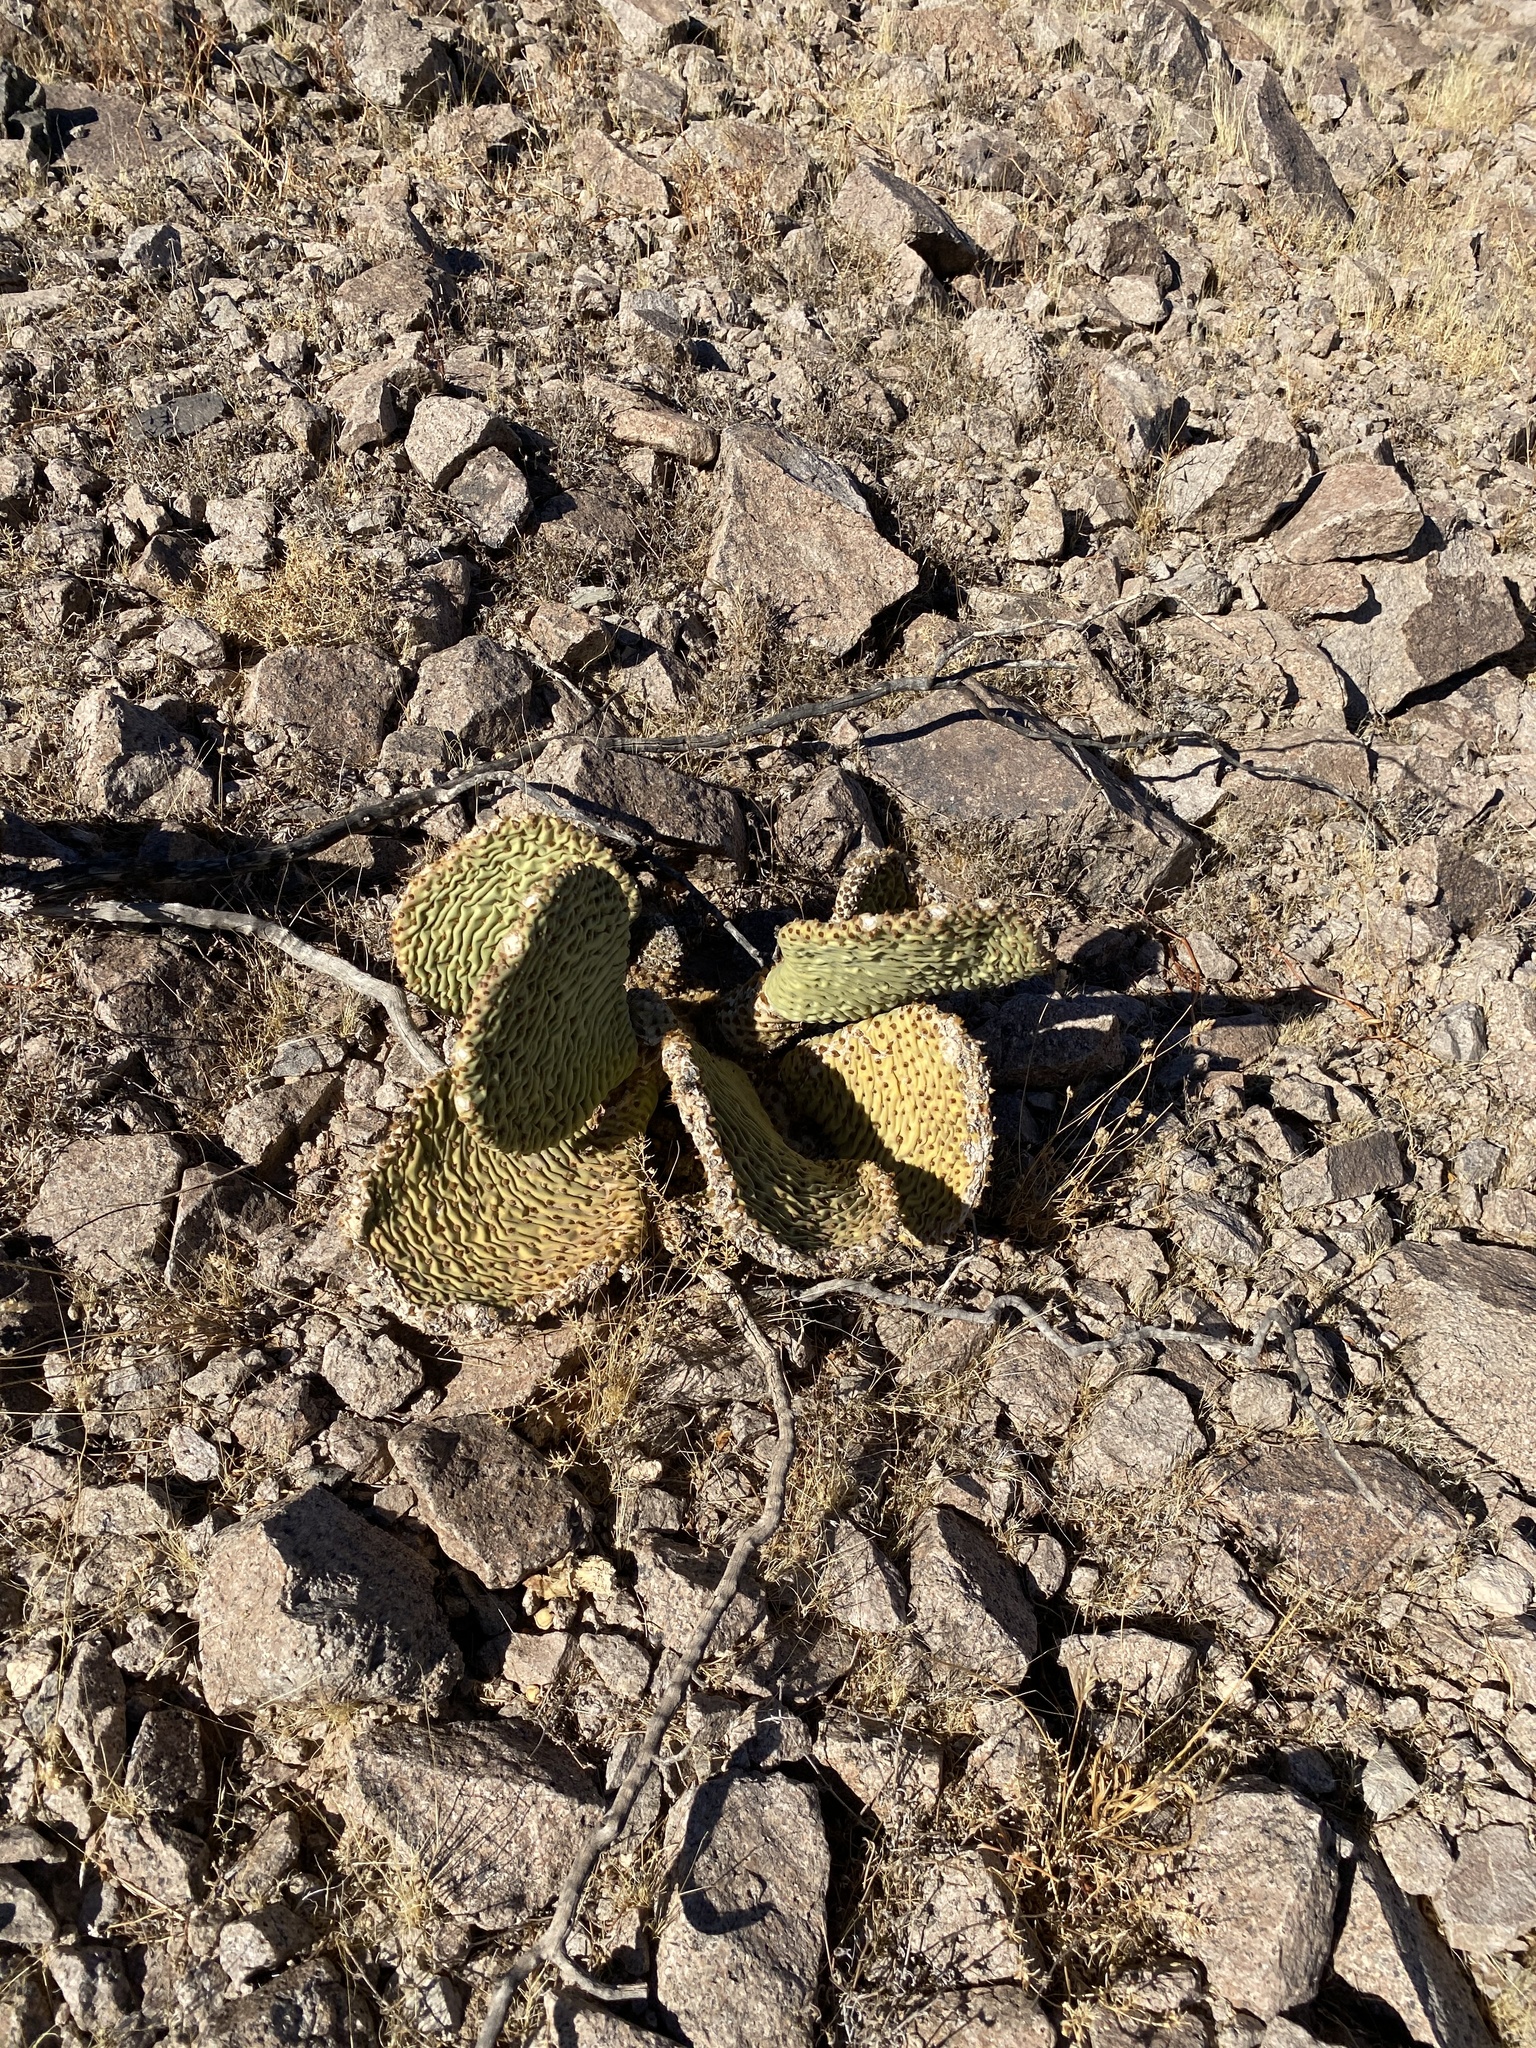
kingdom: Plantae
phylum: Tracheophyta
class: Magnoliopsida
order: Caryophyllales
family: Cactaceae
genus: Opuntia
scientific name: Opuntia basilaris
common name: Beavertail prickly-pear
